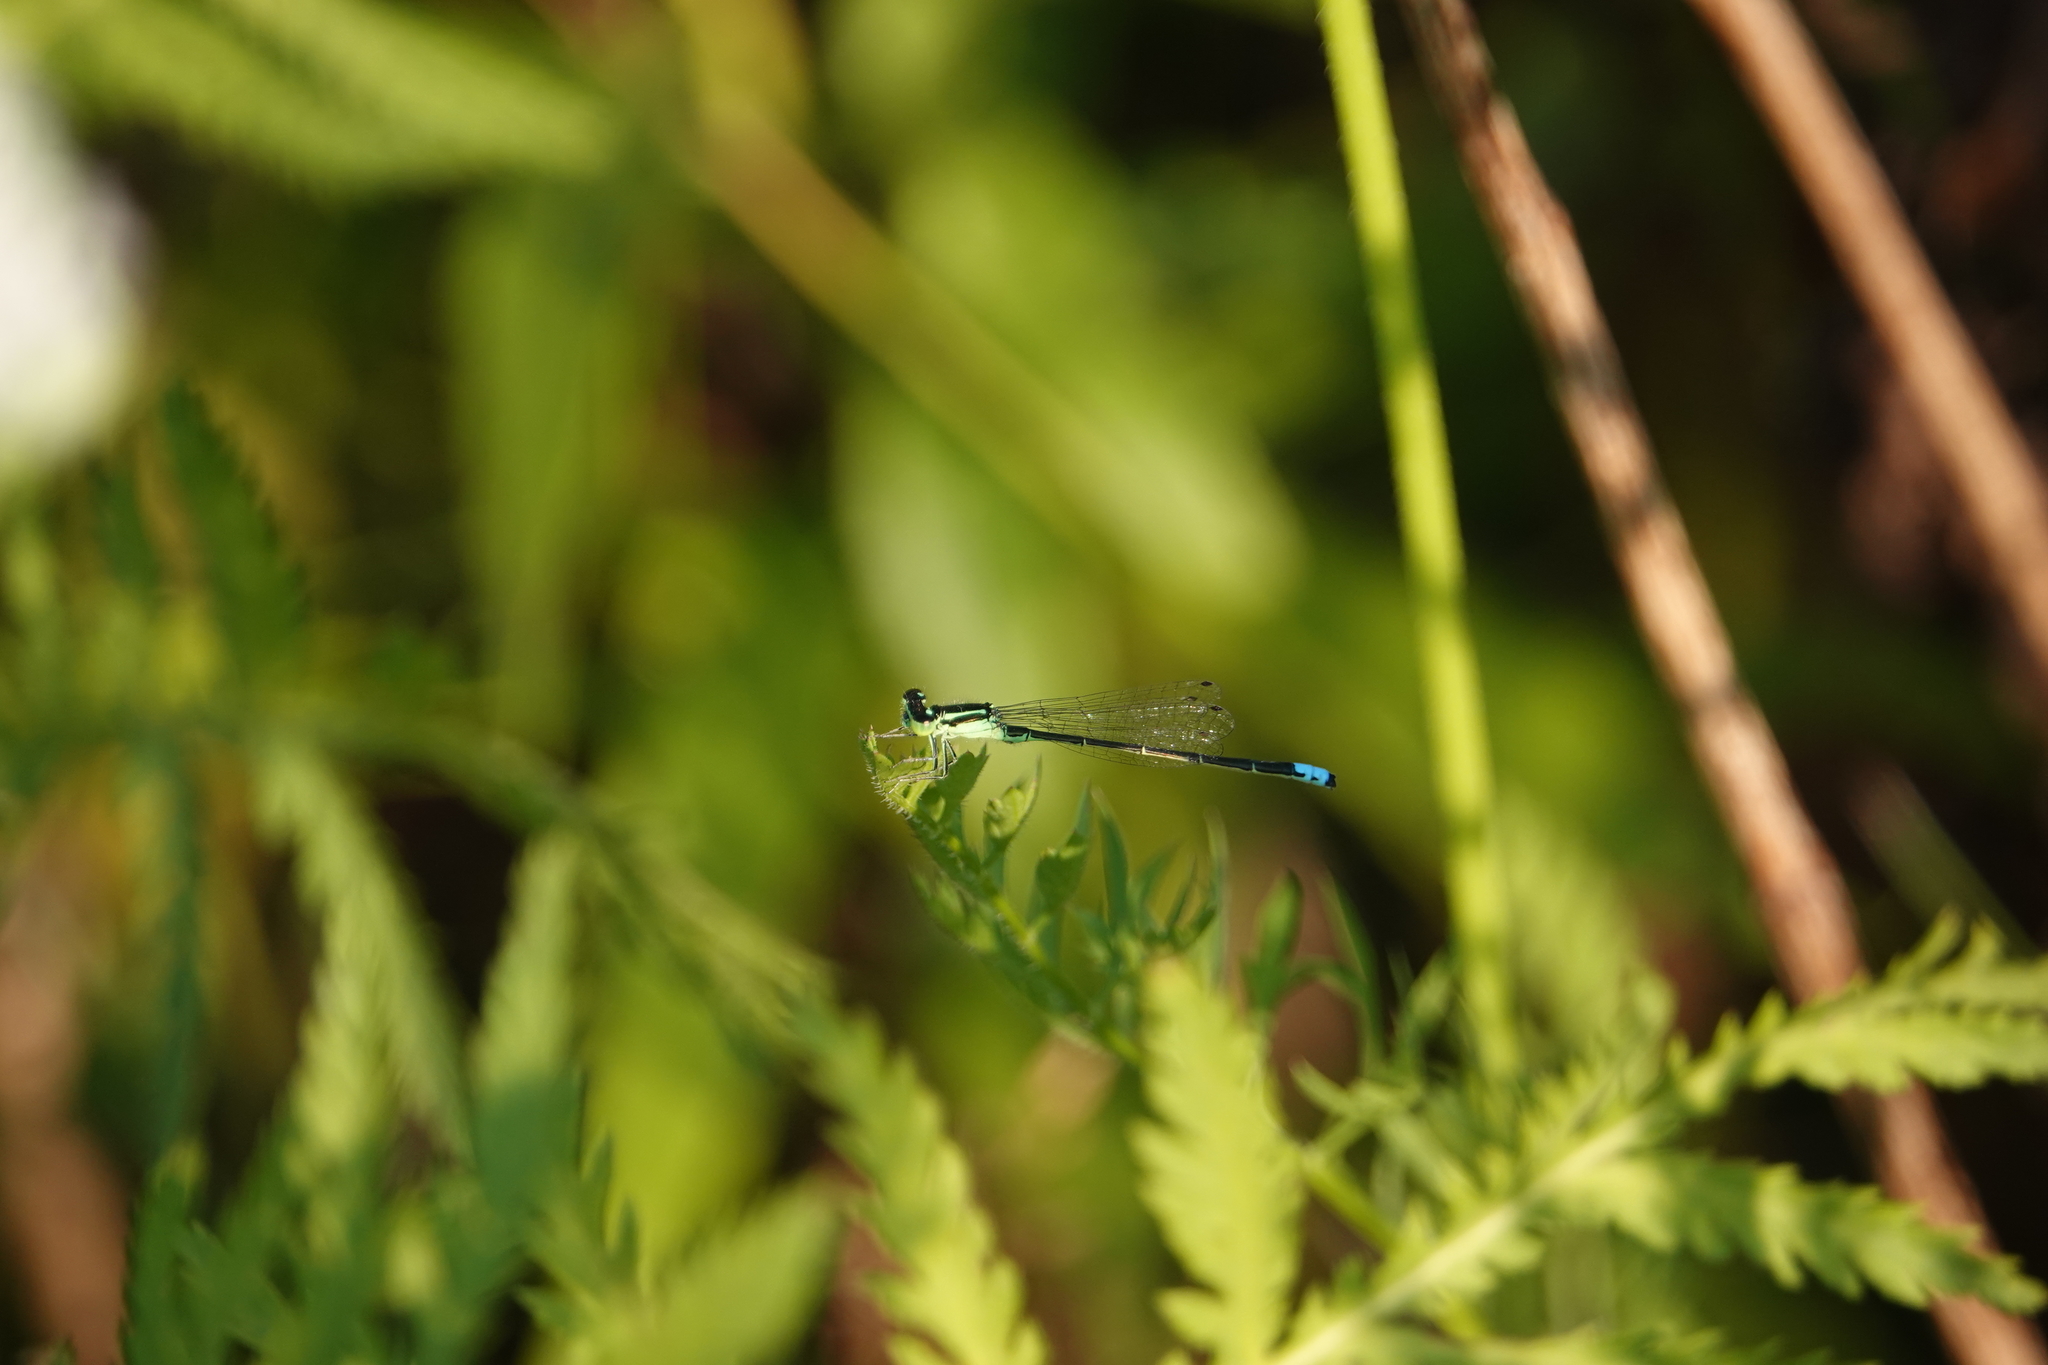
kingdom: Animalia
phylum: Arthropoda
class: Insecta
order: Odonata
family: Coenagrionidae
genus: Ischnura
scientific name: Ischnura verticalis
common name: Eastern forktail
